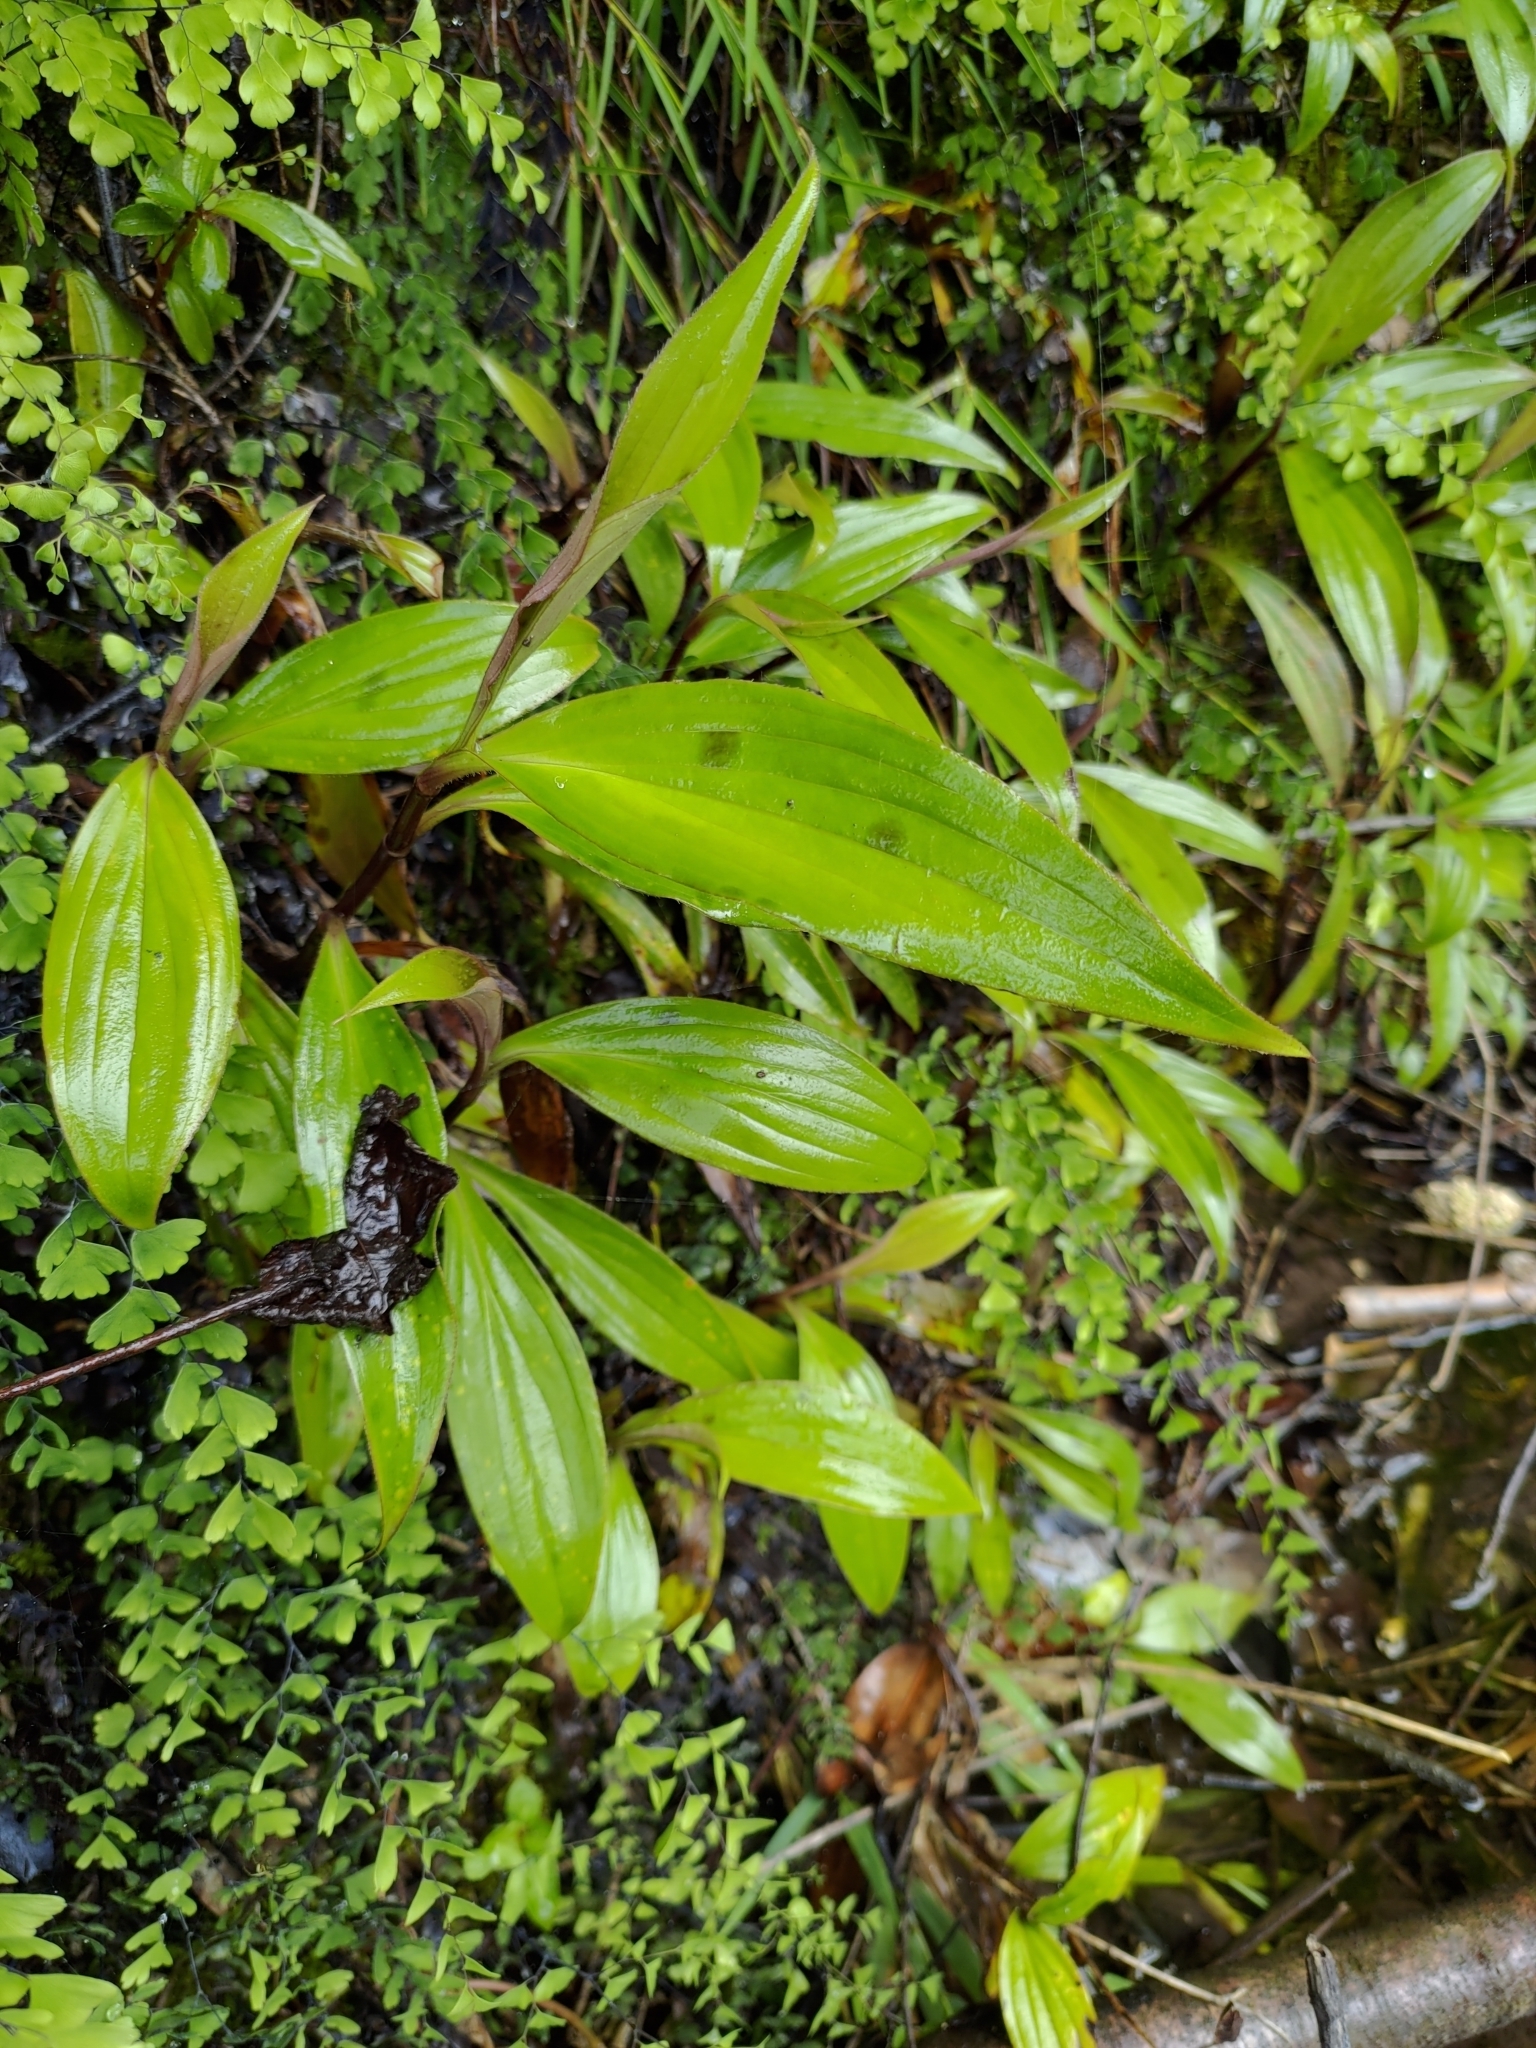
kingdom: Plantae
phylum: Tracheophyta
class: Liliopsida
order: Liliales
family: Liliaceae
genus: Tricyrtis
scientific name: Tricyrtis formosana
